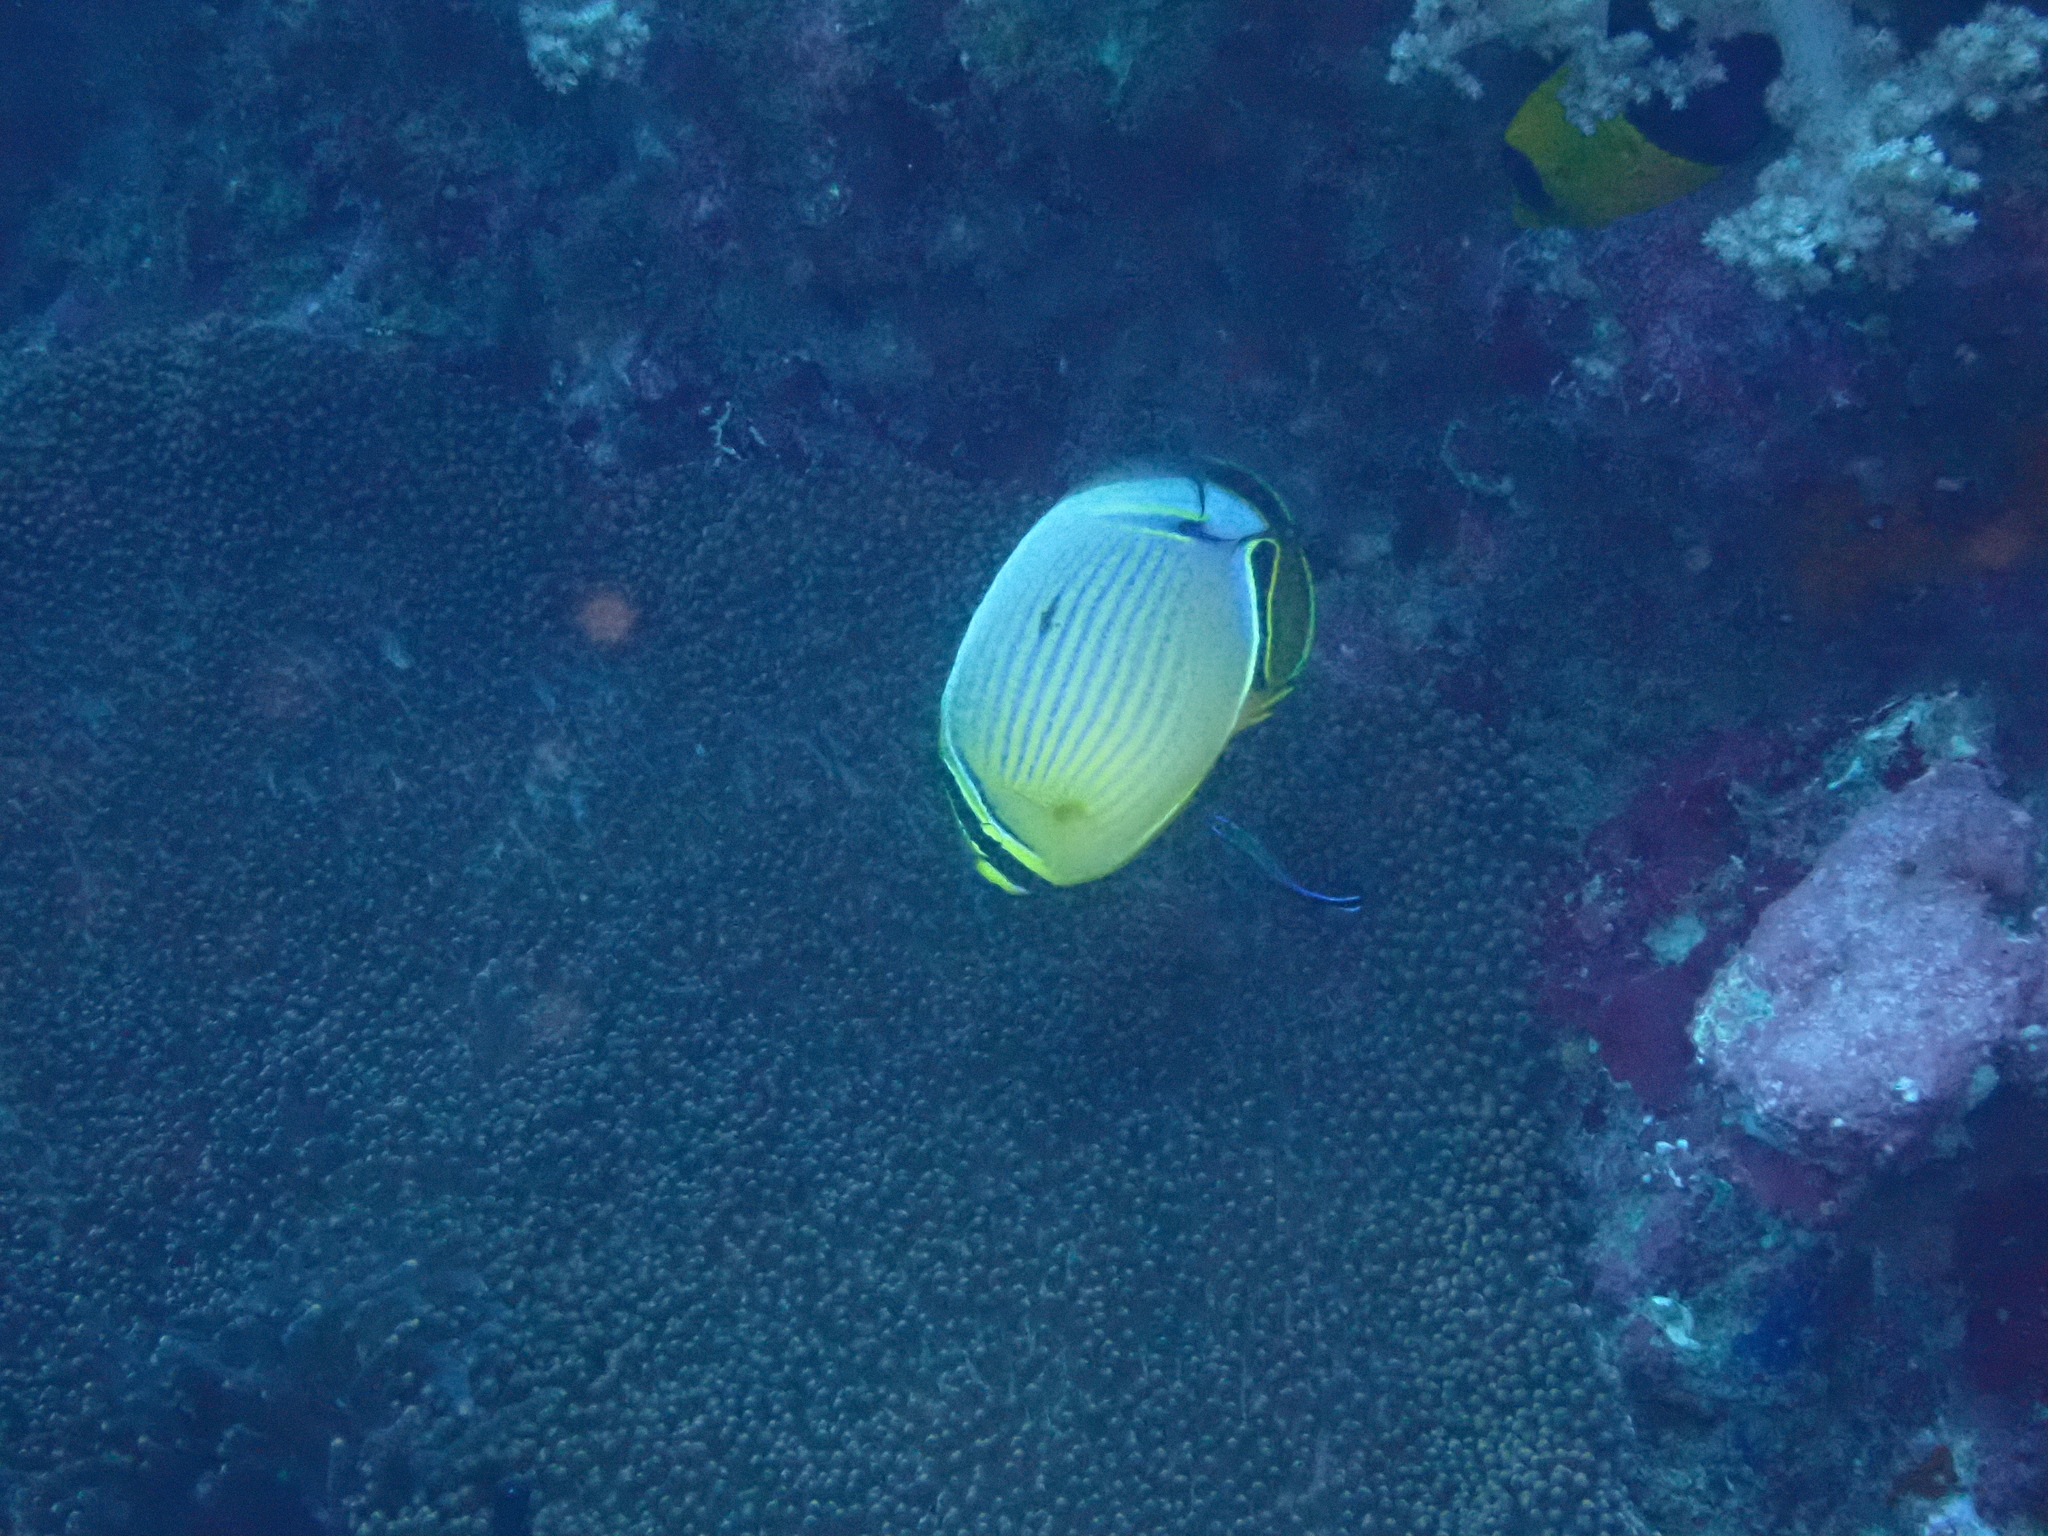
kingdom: Animalia
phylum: Chordata
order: Perciformes
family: Chaetodontidae
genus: Chaetodon
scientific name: Chaetodon lunulatus
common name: Redfin butterflyfish
